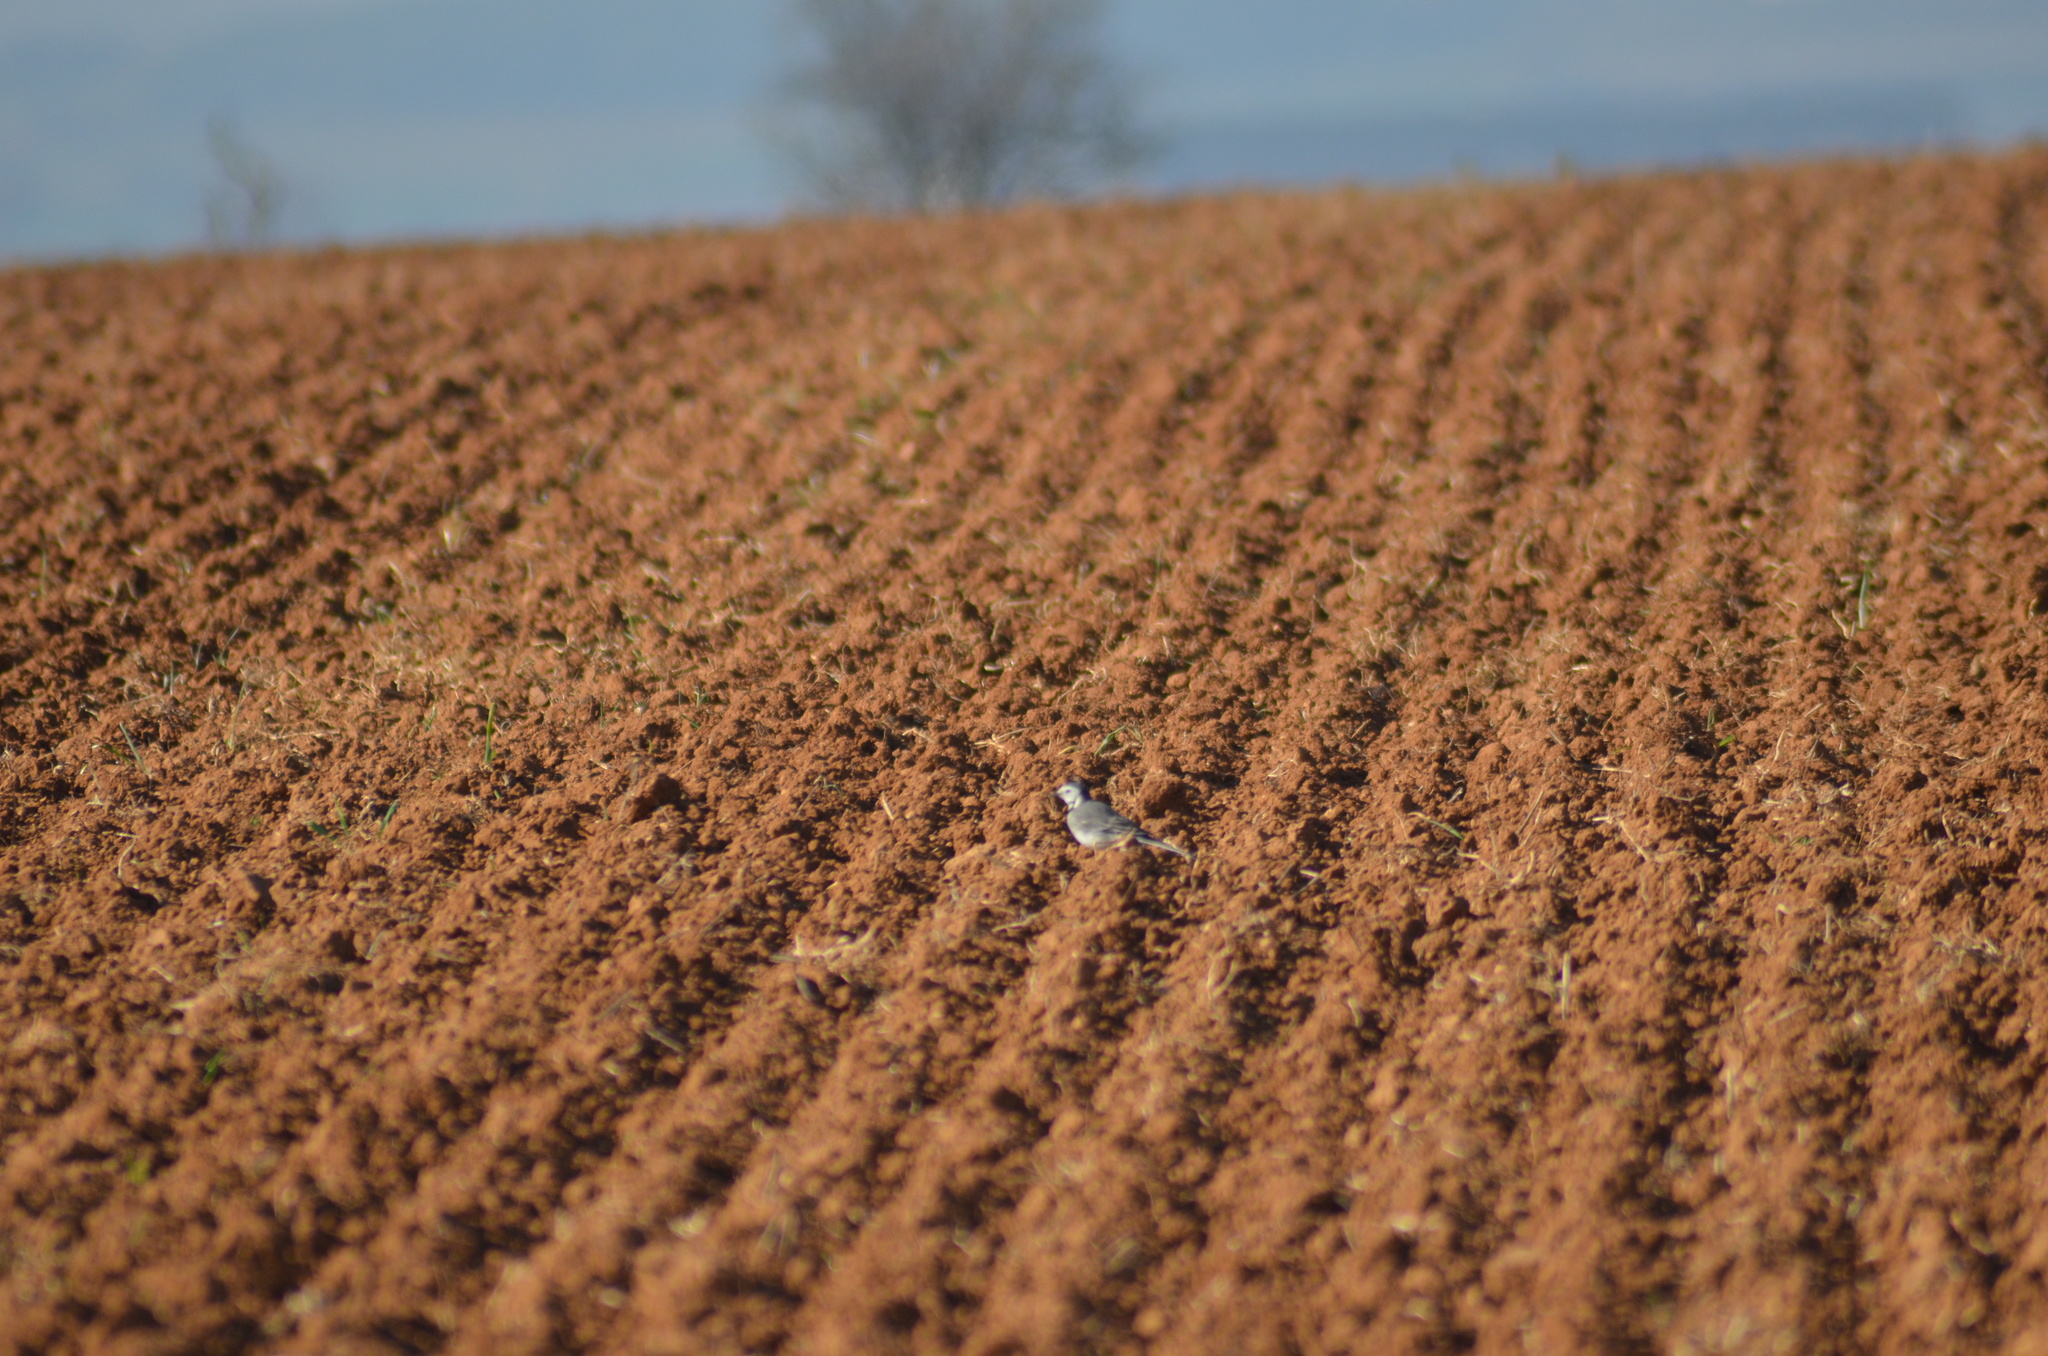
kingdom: Animalia
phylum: Chordata
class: Aves
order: Passeriformes
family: Motacillidae
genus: Motacilla
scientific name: Motacilla alba
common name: White wagtail
